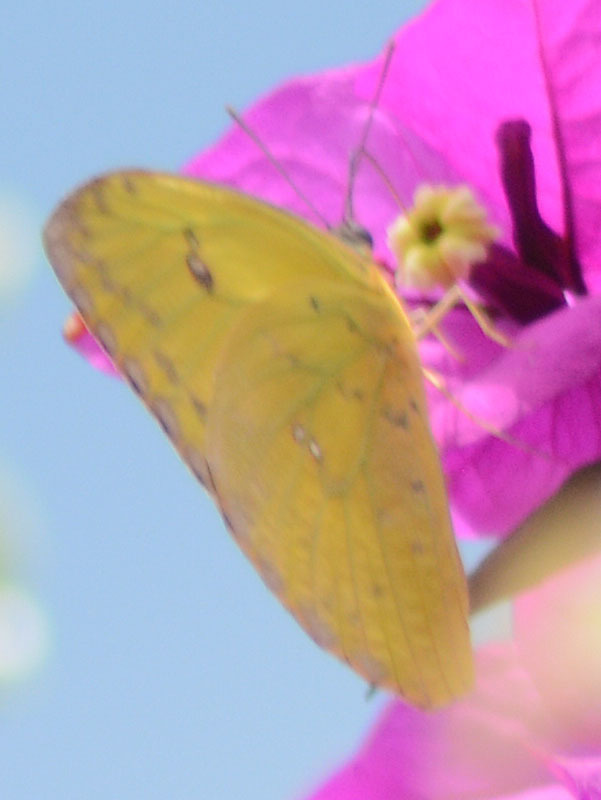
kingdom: Animalia
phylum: Arthropoda
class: Insecta
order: Lepidoptera
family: Pieridae
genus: Phoebis
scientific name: Phoebis philea
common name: Orange-barred giant sulphur
